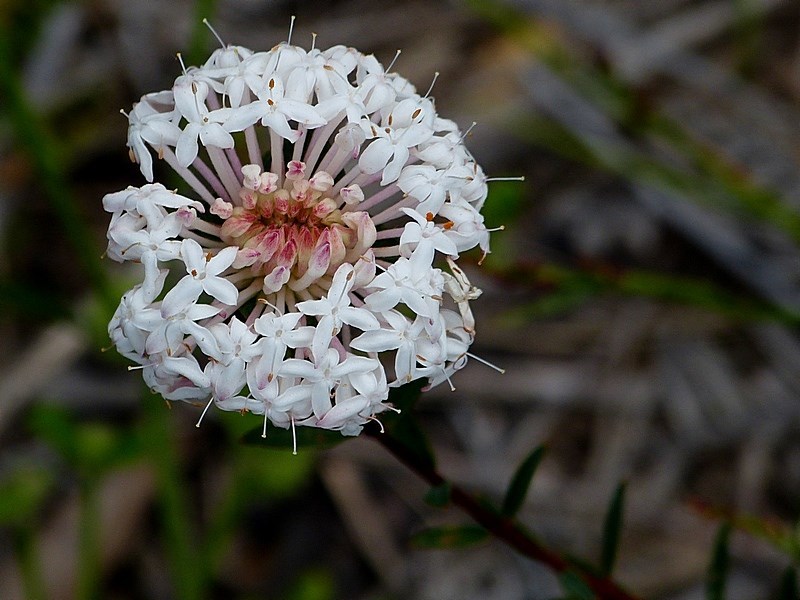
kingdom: Plantae
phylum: Tracheophyta
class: Magnoliopsida
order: Malvales
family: Thymelaeaceae
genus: Pimelea
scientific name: Pimelea linifolia
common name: Queen-of-the-bush
